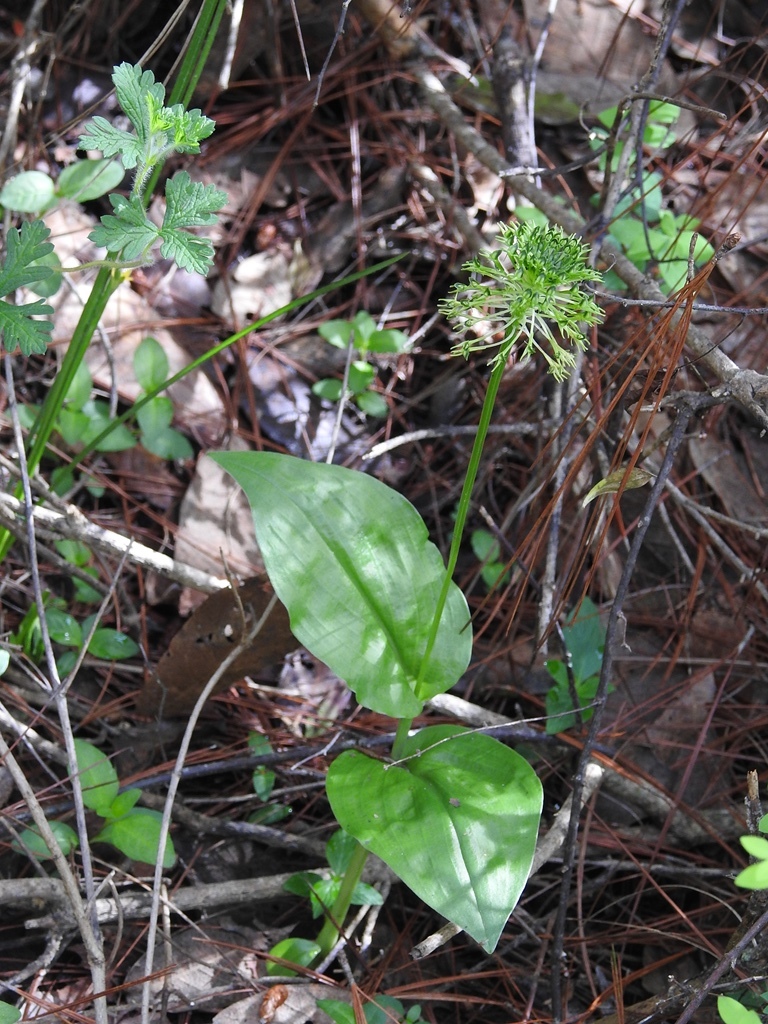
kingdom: Plantae
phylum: Tracheophyta
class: Liliopsida
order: Asparagales
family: Orchidaceae
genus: Malaxis
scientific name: Malaxis brachyrrhynchos
